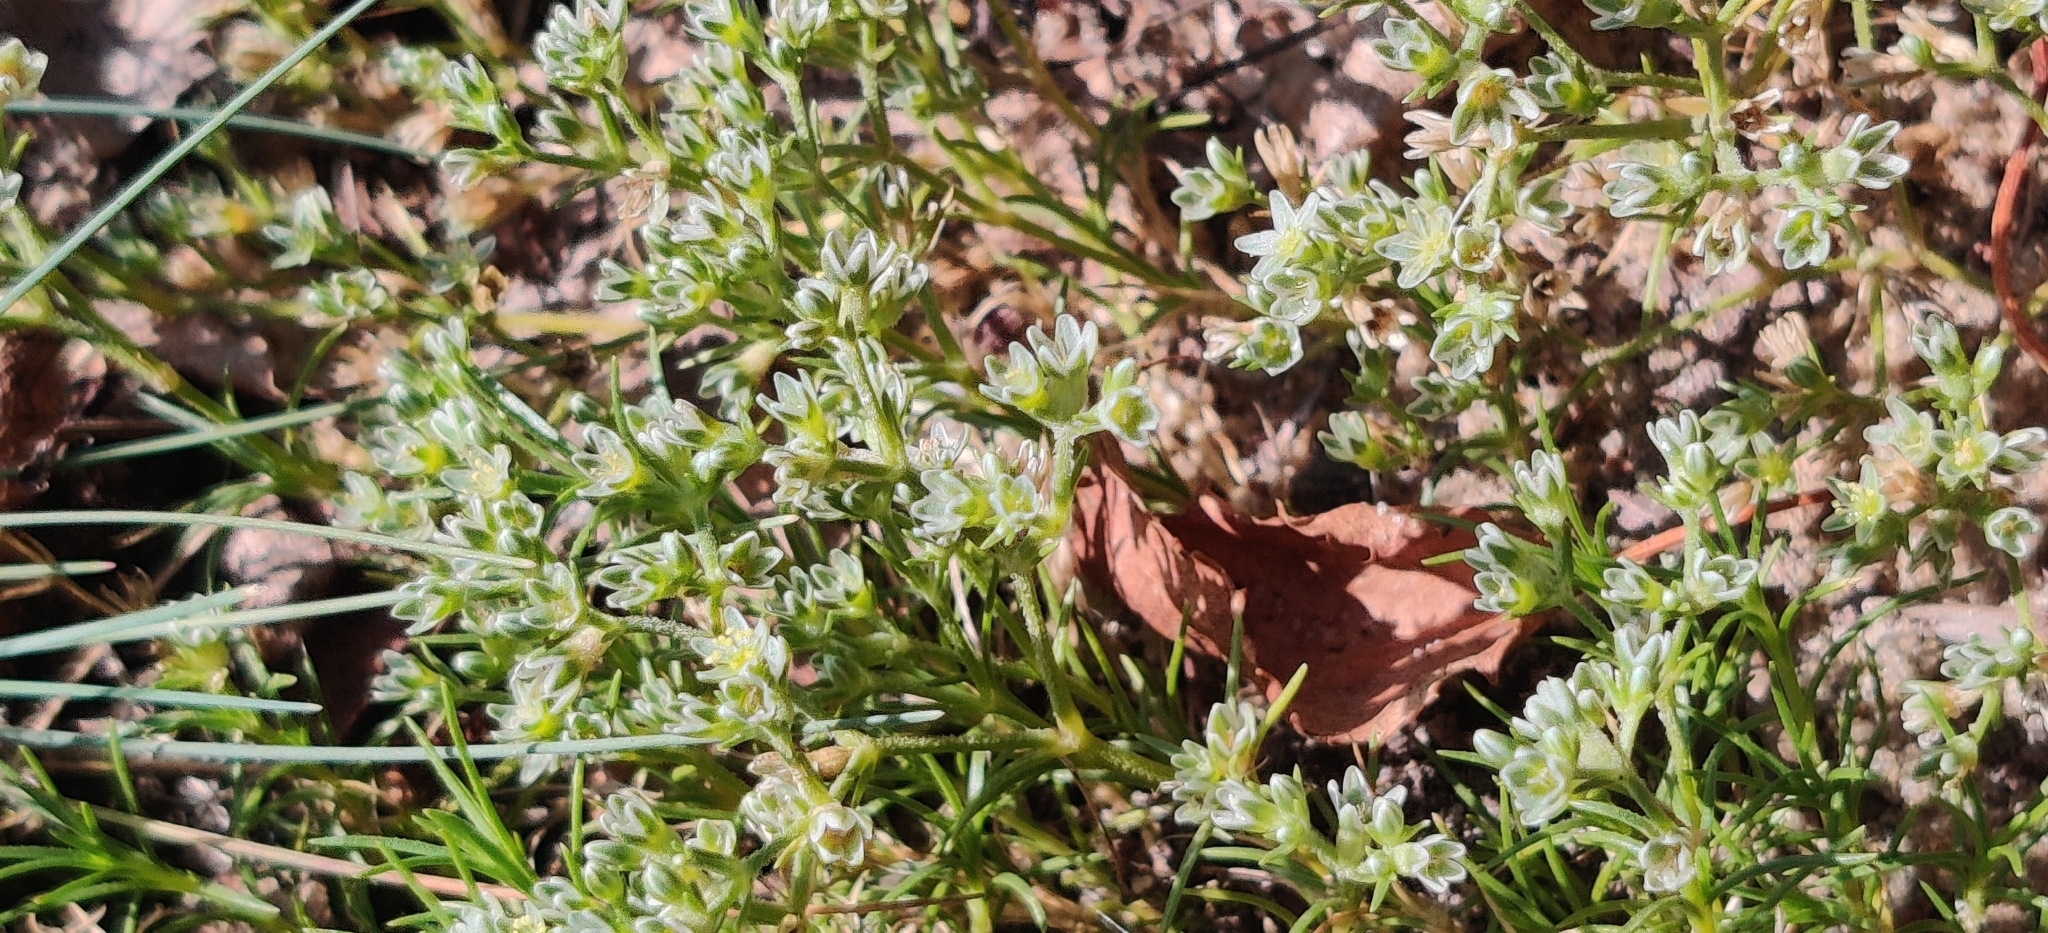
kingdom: Plantae
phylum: Tracheophyta
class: Magnoliopsida
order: Caryophyllales
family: Caryophyllaceae
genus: Scleranthus
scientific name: Scleranthus perennis
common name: Perennial knawel
